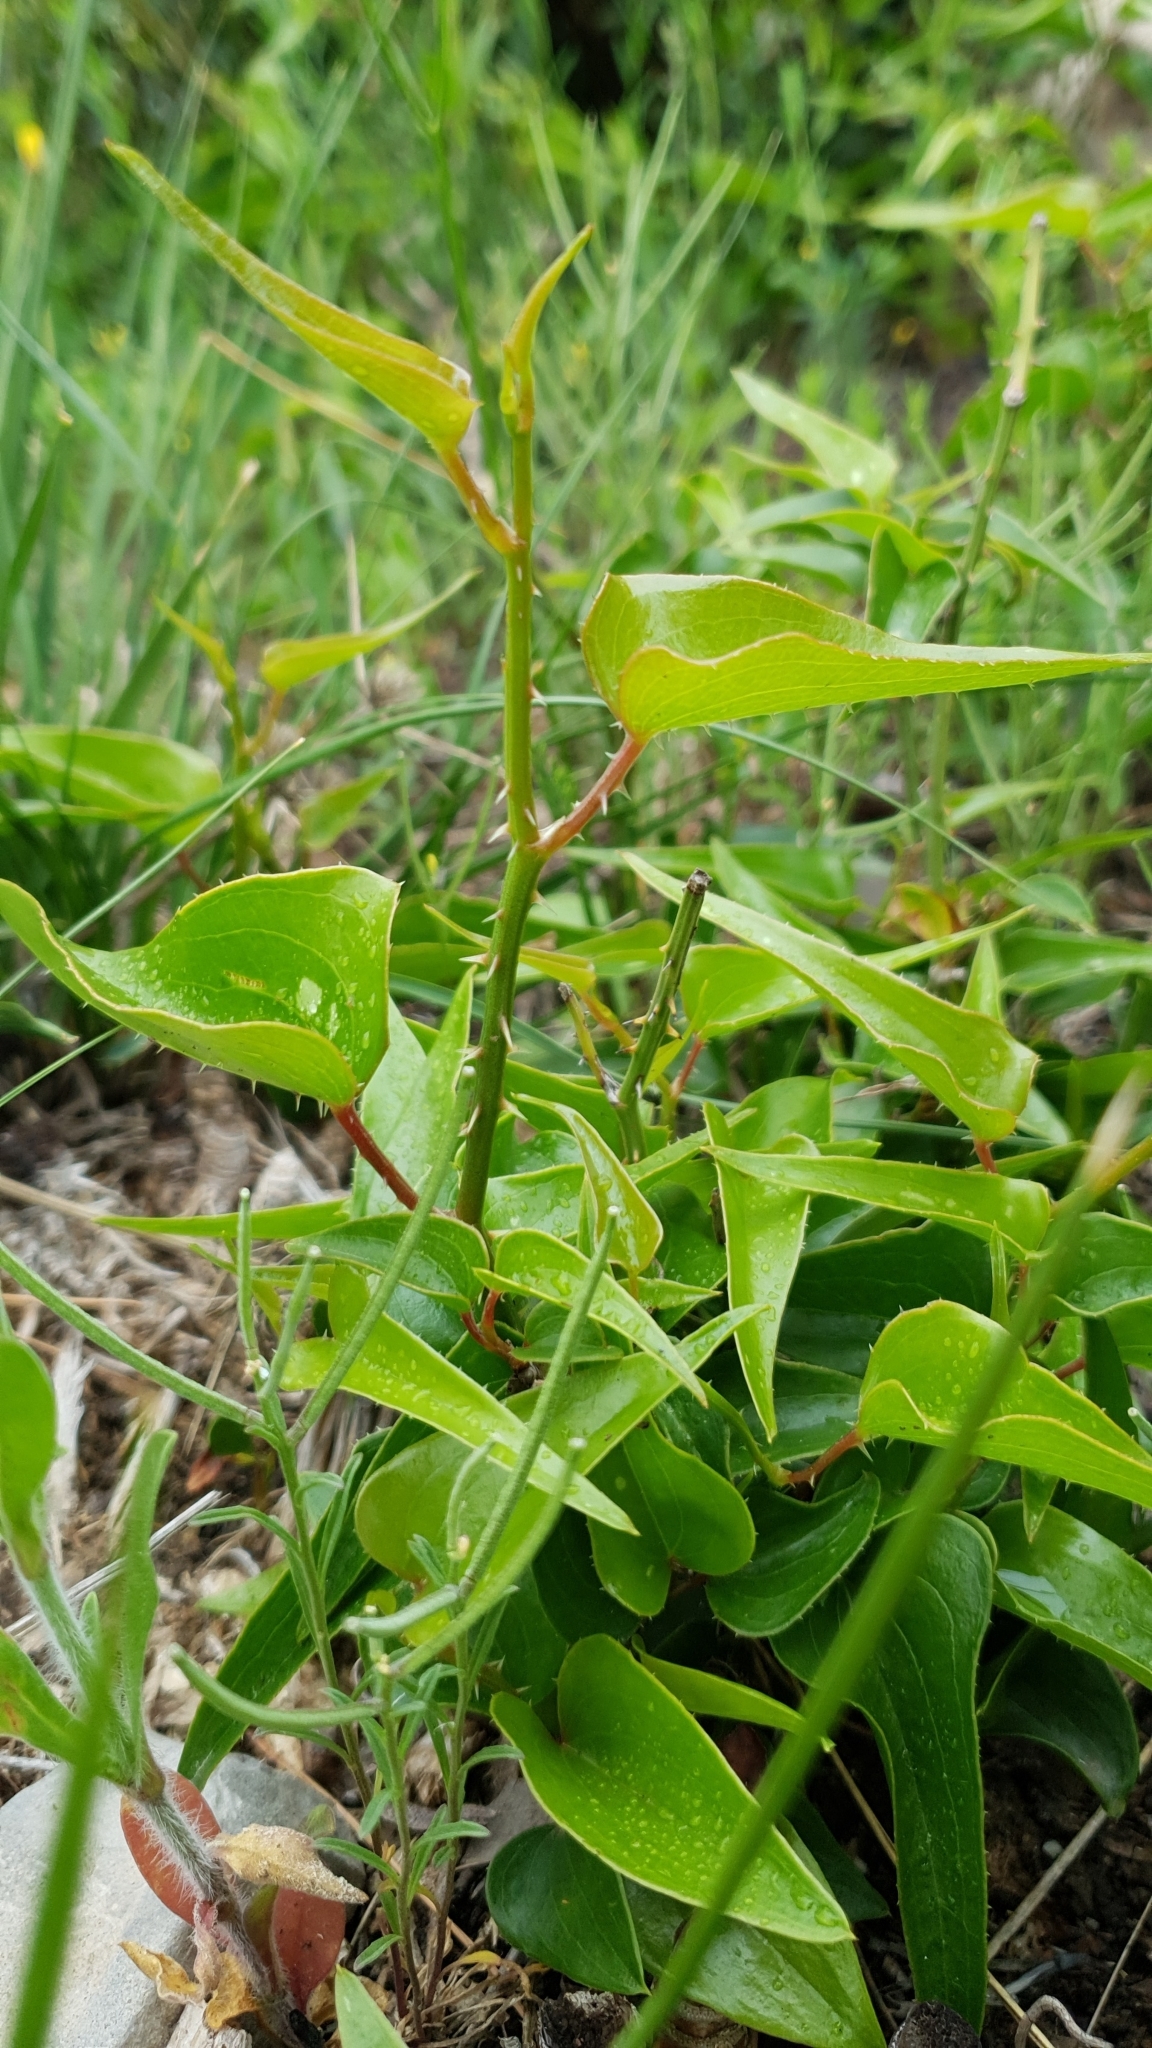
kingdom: Plantae
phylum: Tracheophyta
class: Liliopsida
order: Liliales
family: Smilacaceae
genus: Smilax
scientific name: Smilax aspera
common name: Common smilax
